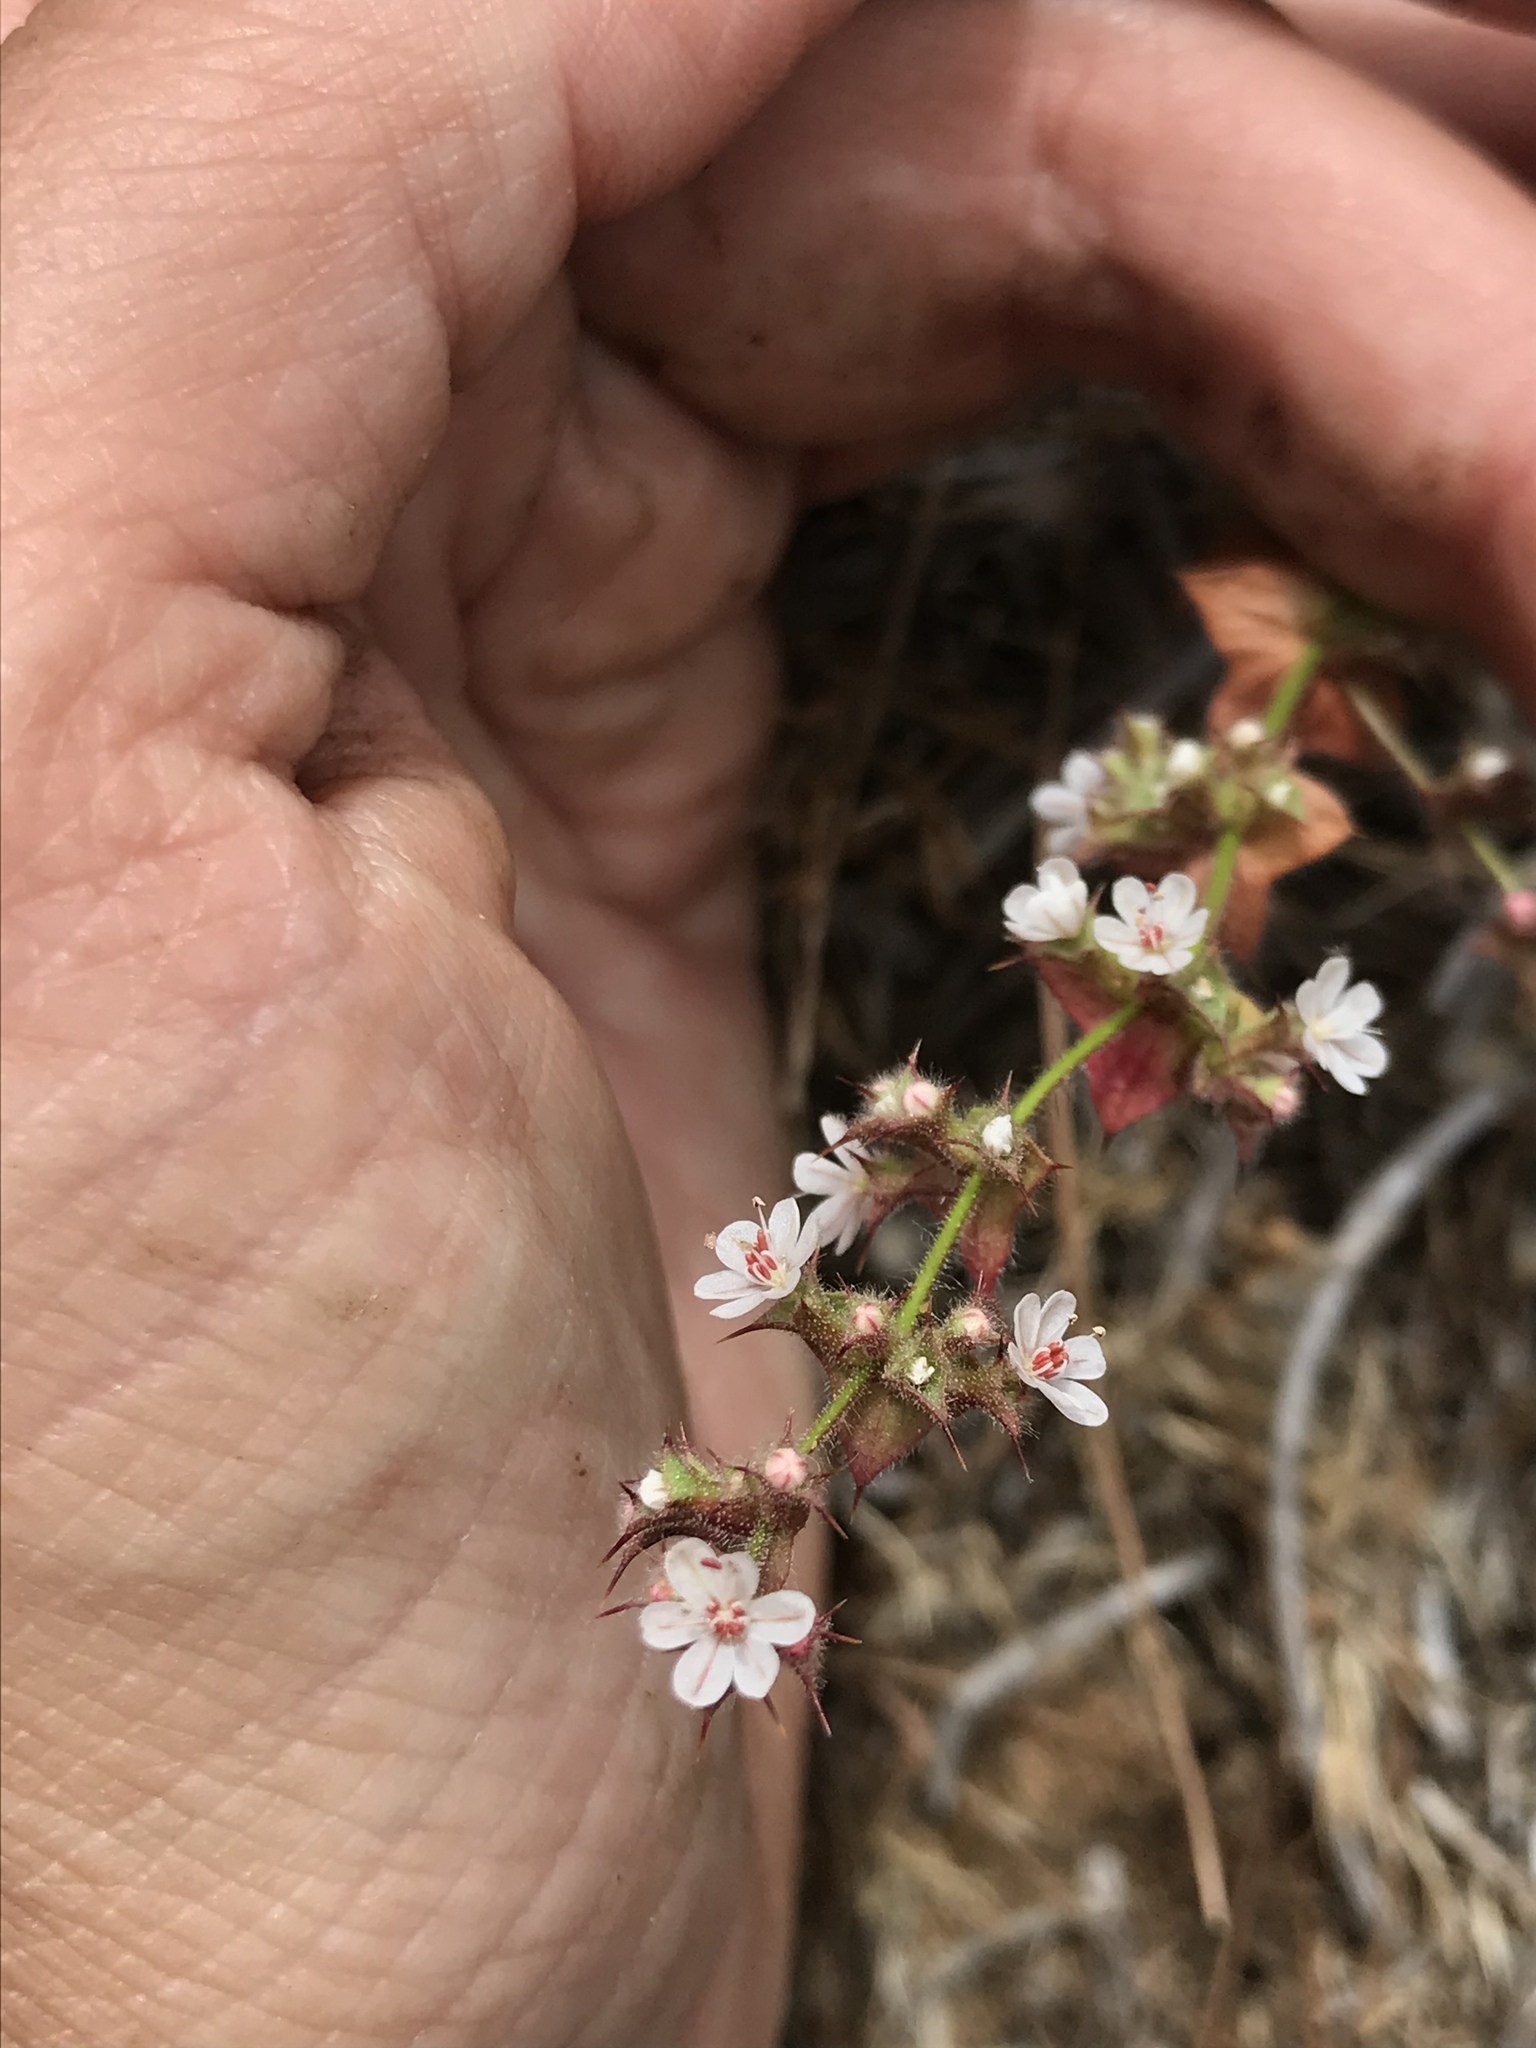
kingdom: Plantae
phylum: Tracheophyta
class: Magnoliopsida
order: Caryophyllales
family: Polygonaceae
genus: Mucronea
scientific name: Mucronea californica
